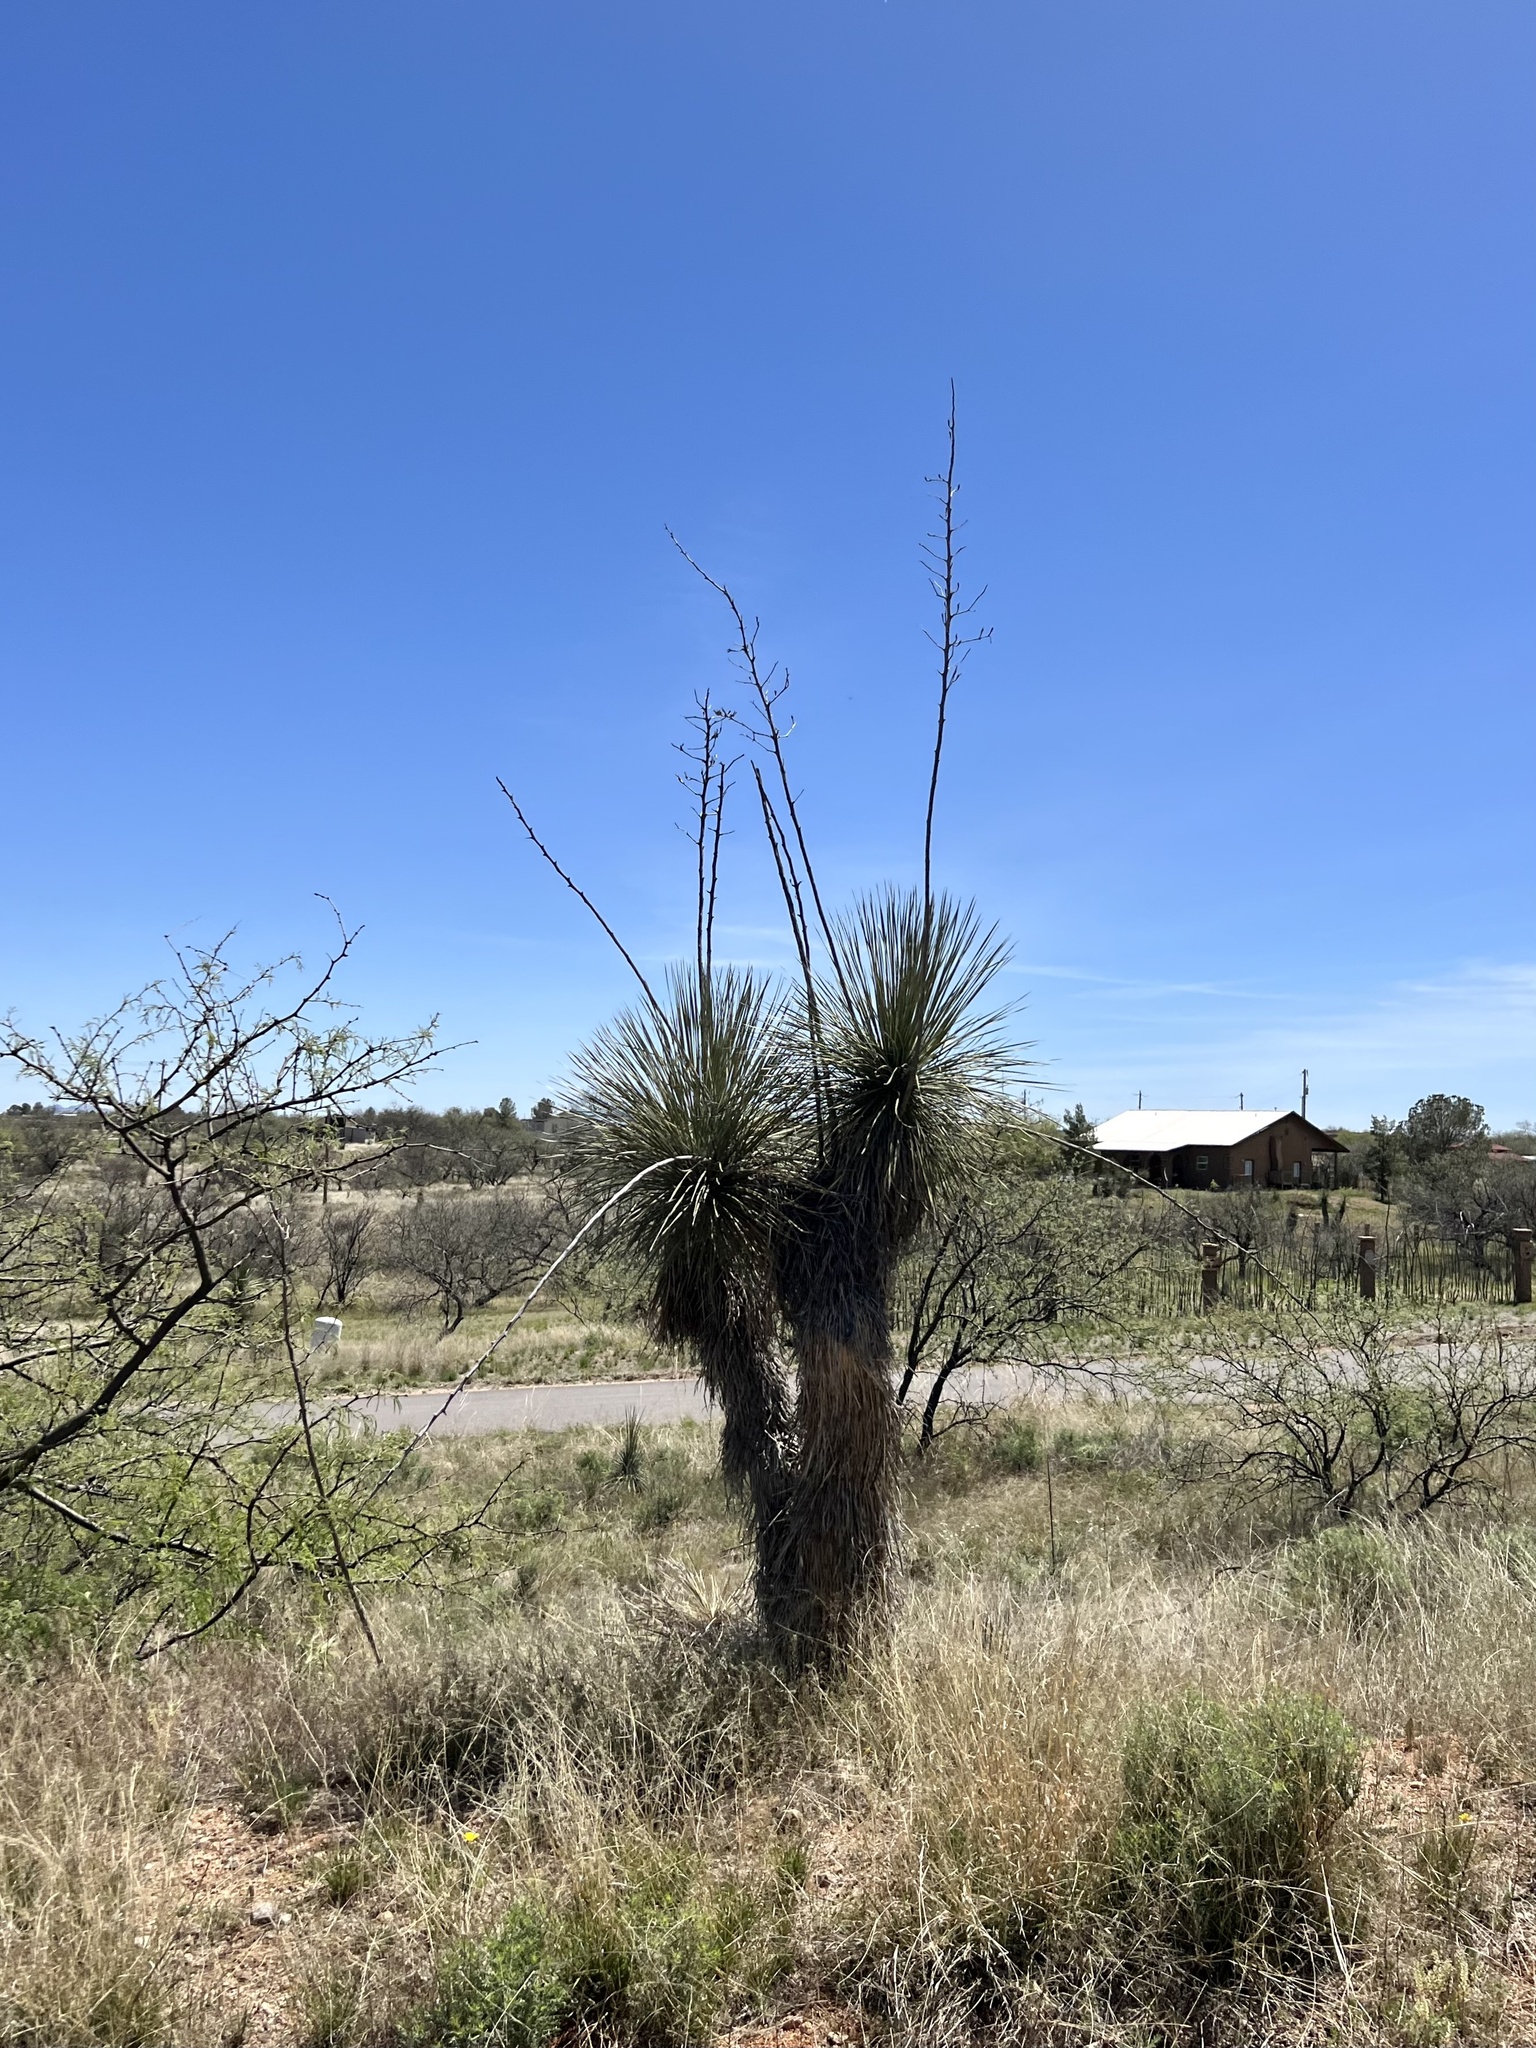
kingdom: Plantae
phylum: Tracheophyta
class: Liliopsida
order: Asparagales
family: Asparagaceae
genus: Yucca
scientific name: Yucca elata
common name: Palmella
